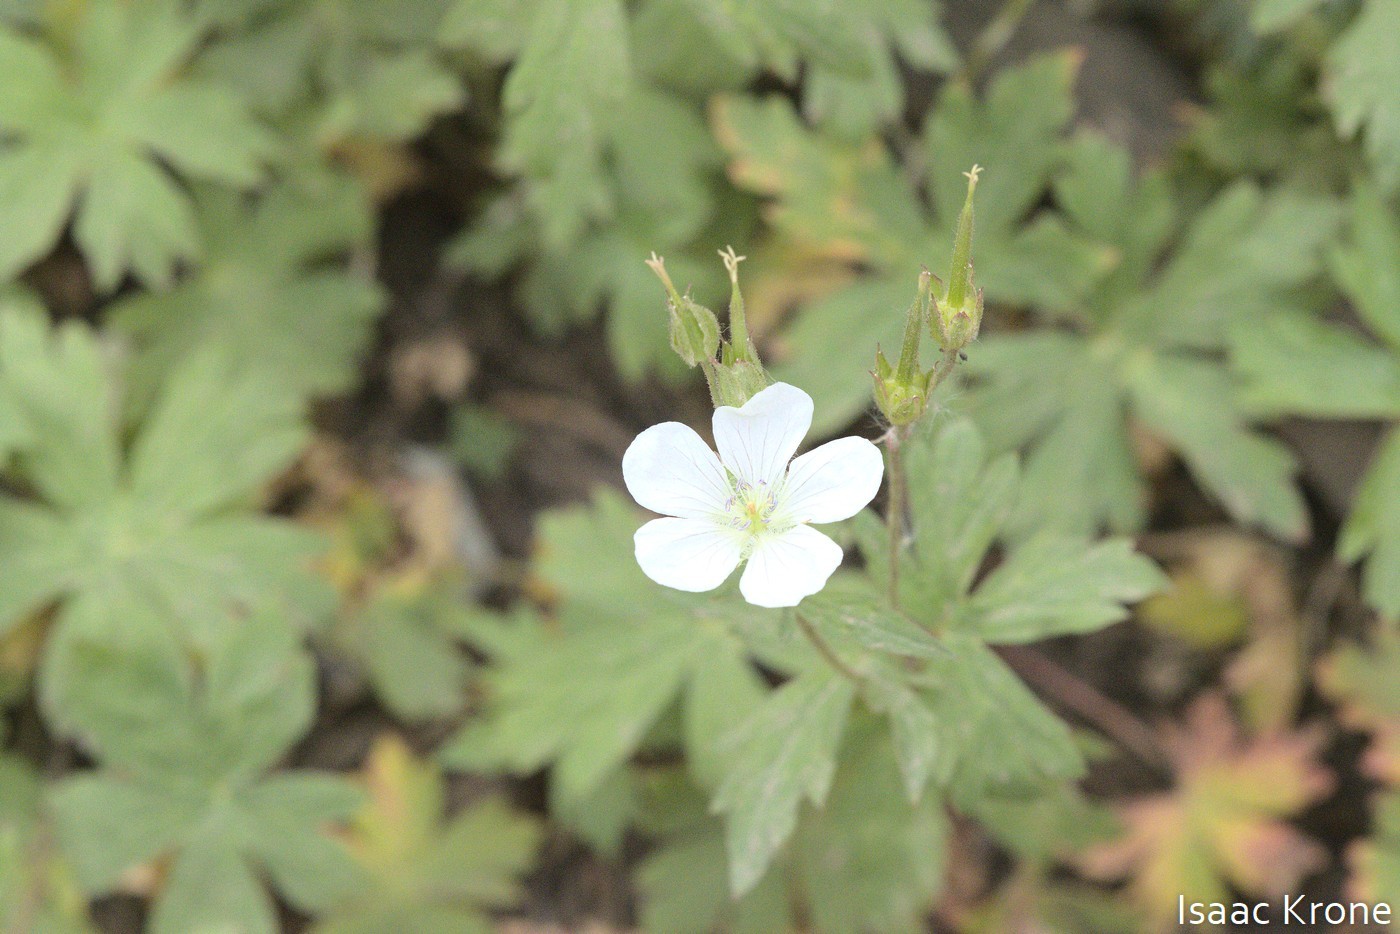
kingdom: Plantae
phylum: Tracheophyta
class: Magnoliopsida
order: Geraniales
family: Geraniaceae
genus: Geranium
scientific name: Geranium richardsonii
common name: Richardson's crane's-bill
